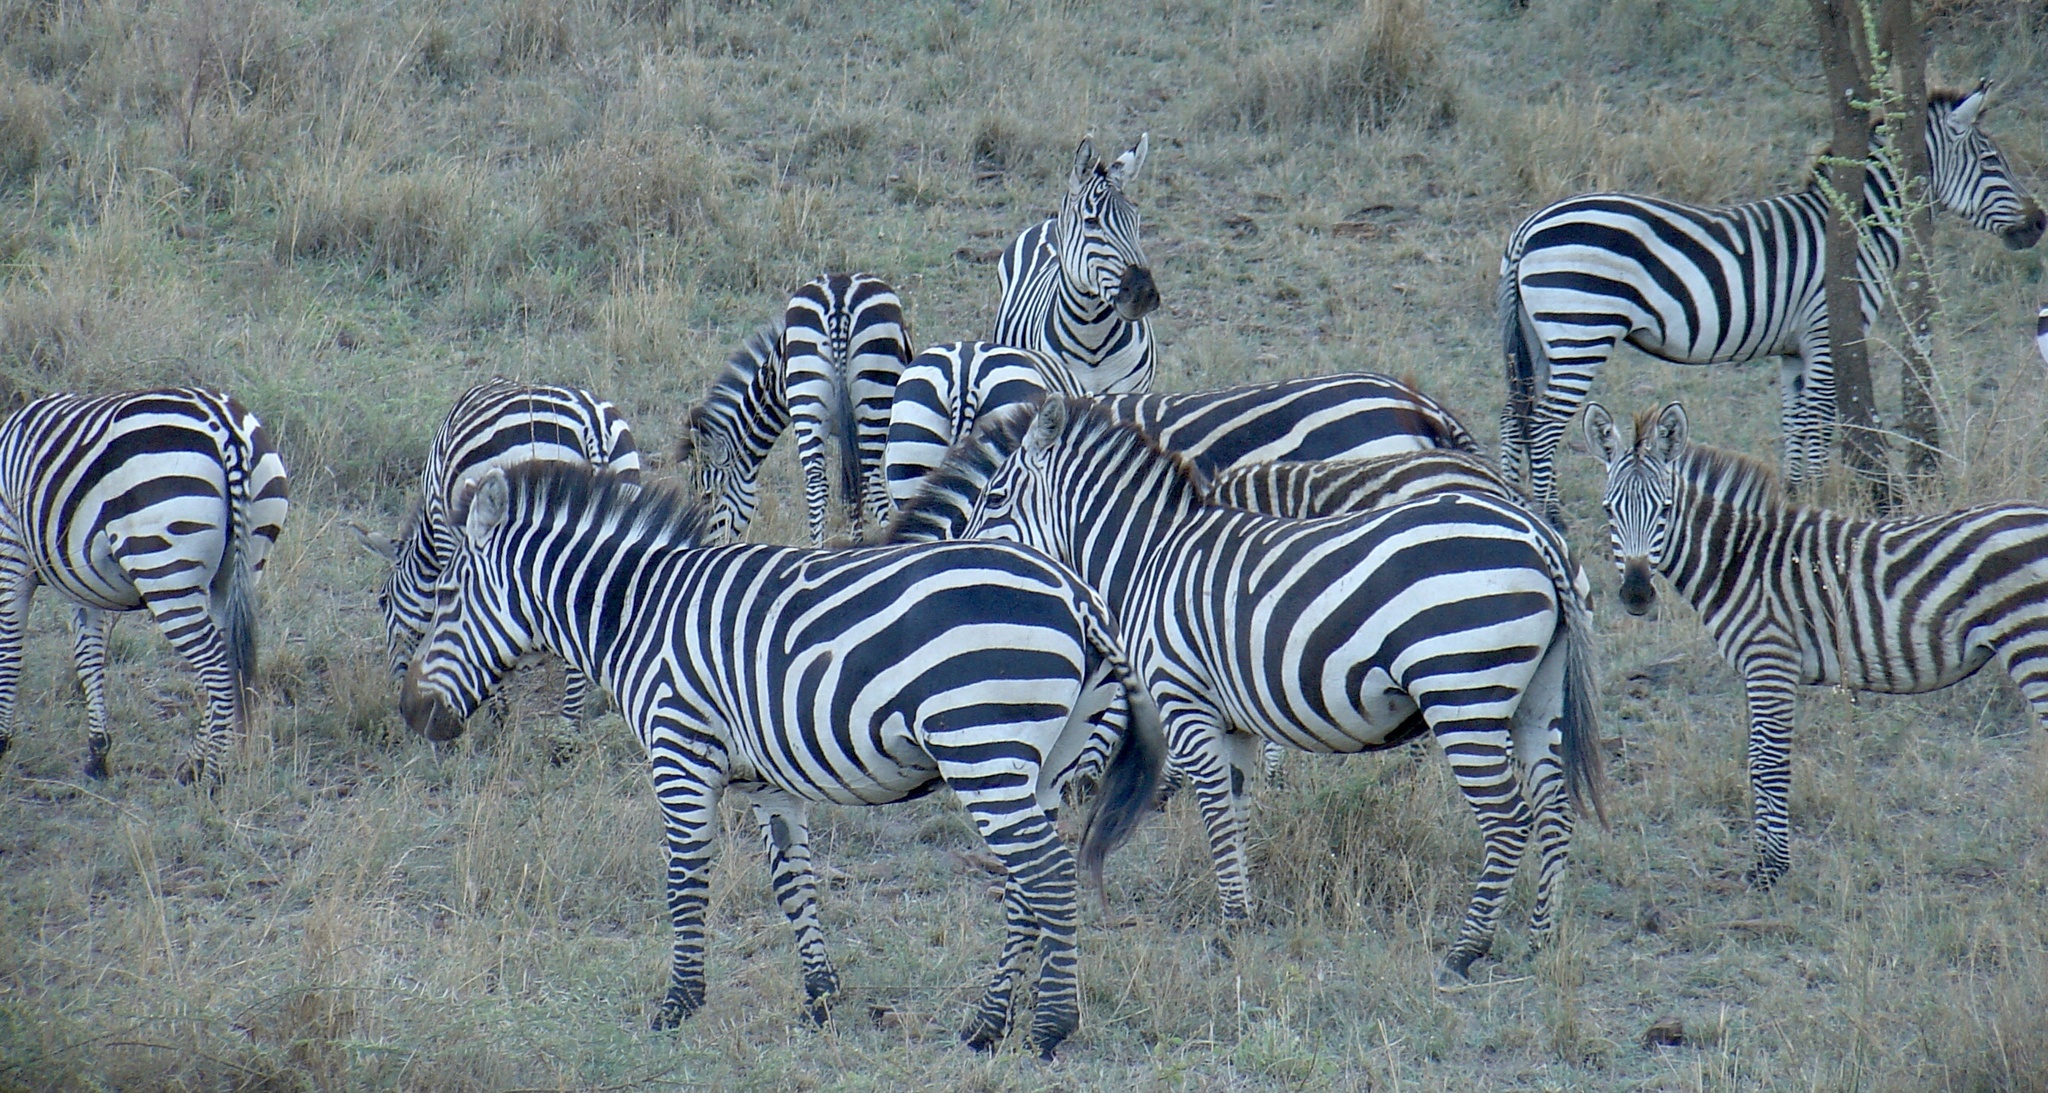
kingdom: Animalia
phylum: Chordata
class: Mammalia
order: Perissodactyla
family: Equidae
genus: Equus
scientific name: Equus quagga
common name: Plains zebra
